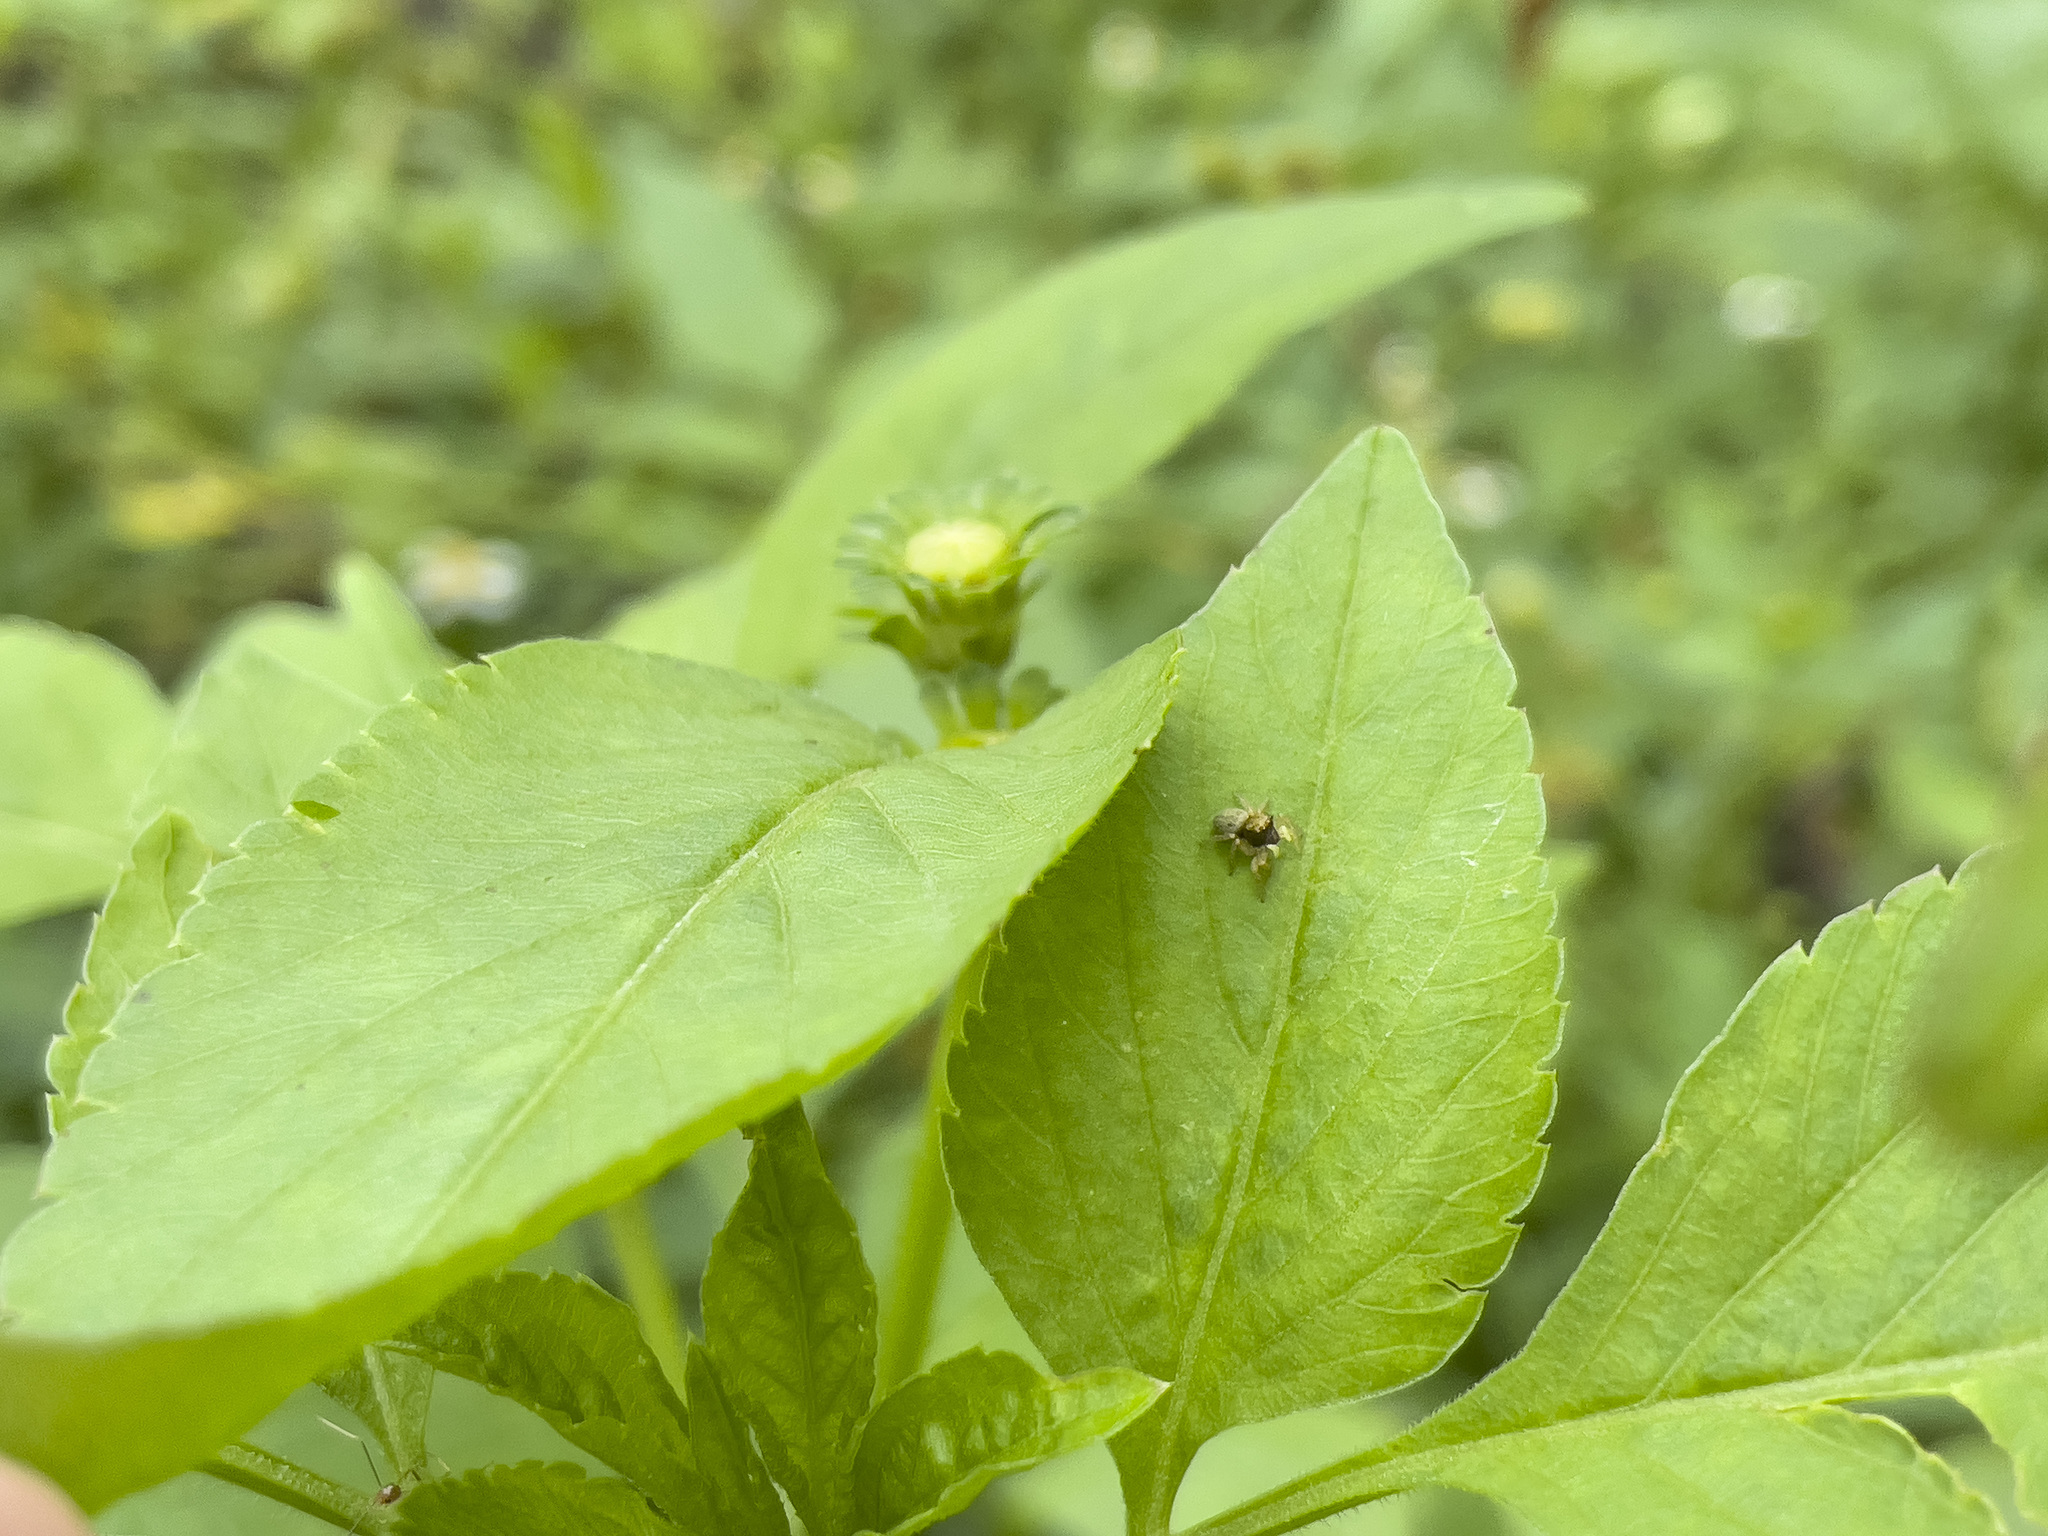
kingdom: Animalia
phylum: Arthropoda
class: Arachnida
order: Araneae
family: Salticidae
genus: Carrhotus
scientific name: Carrhotus sannio
